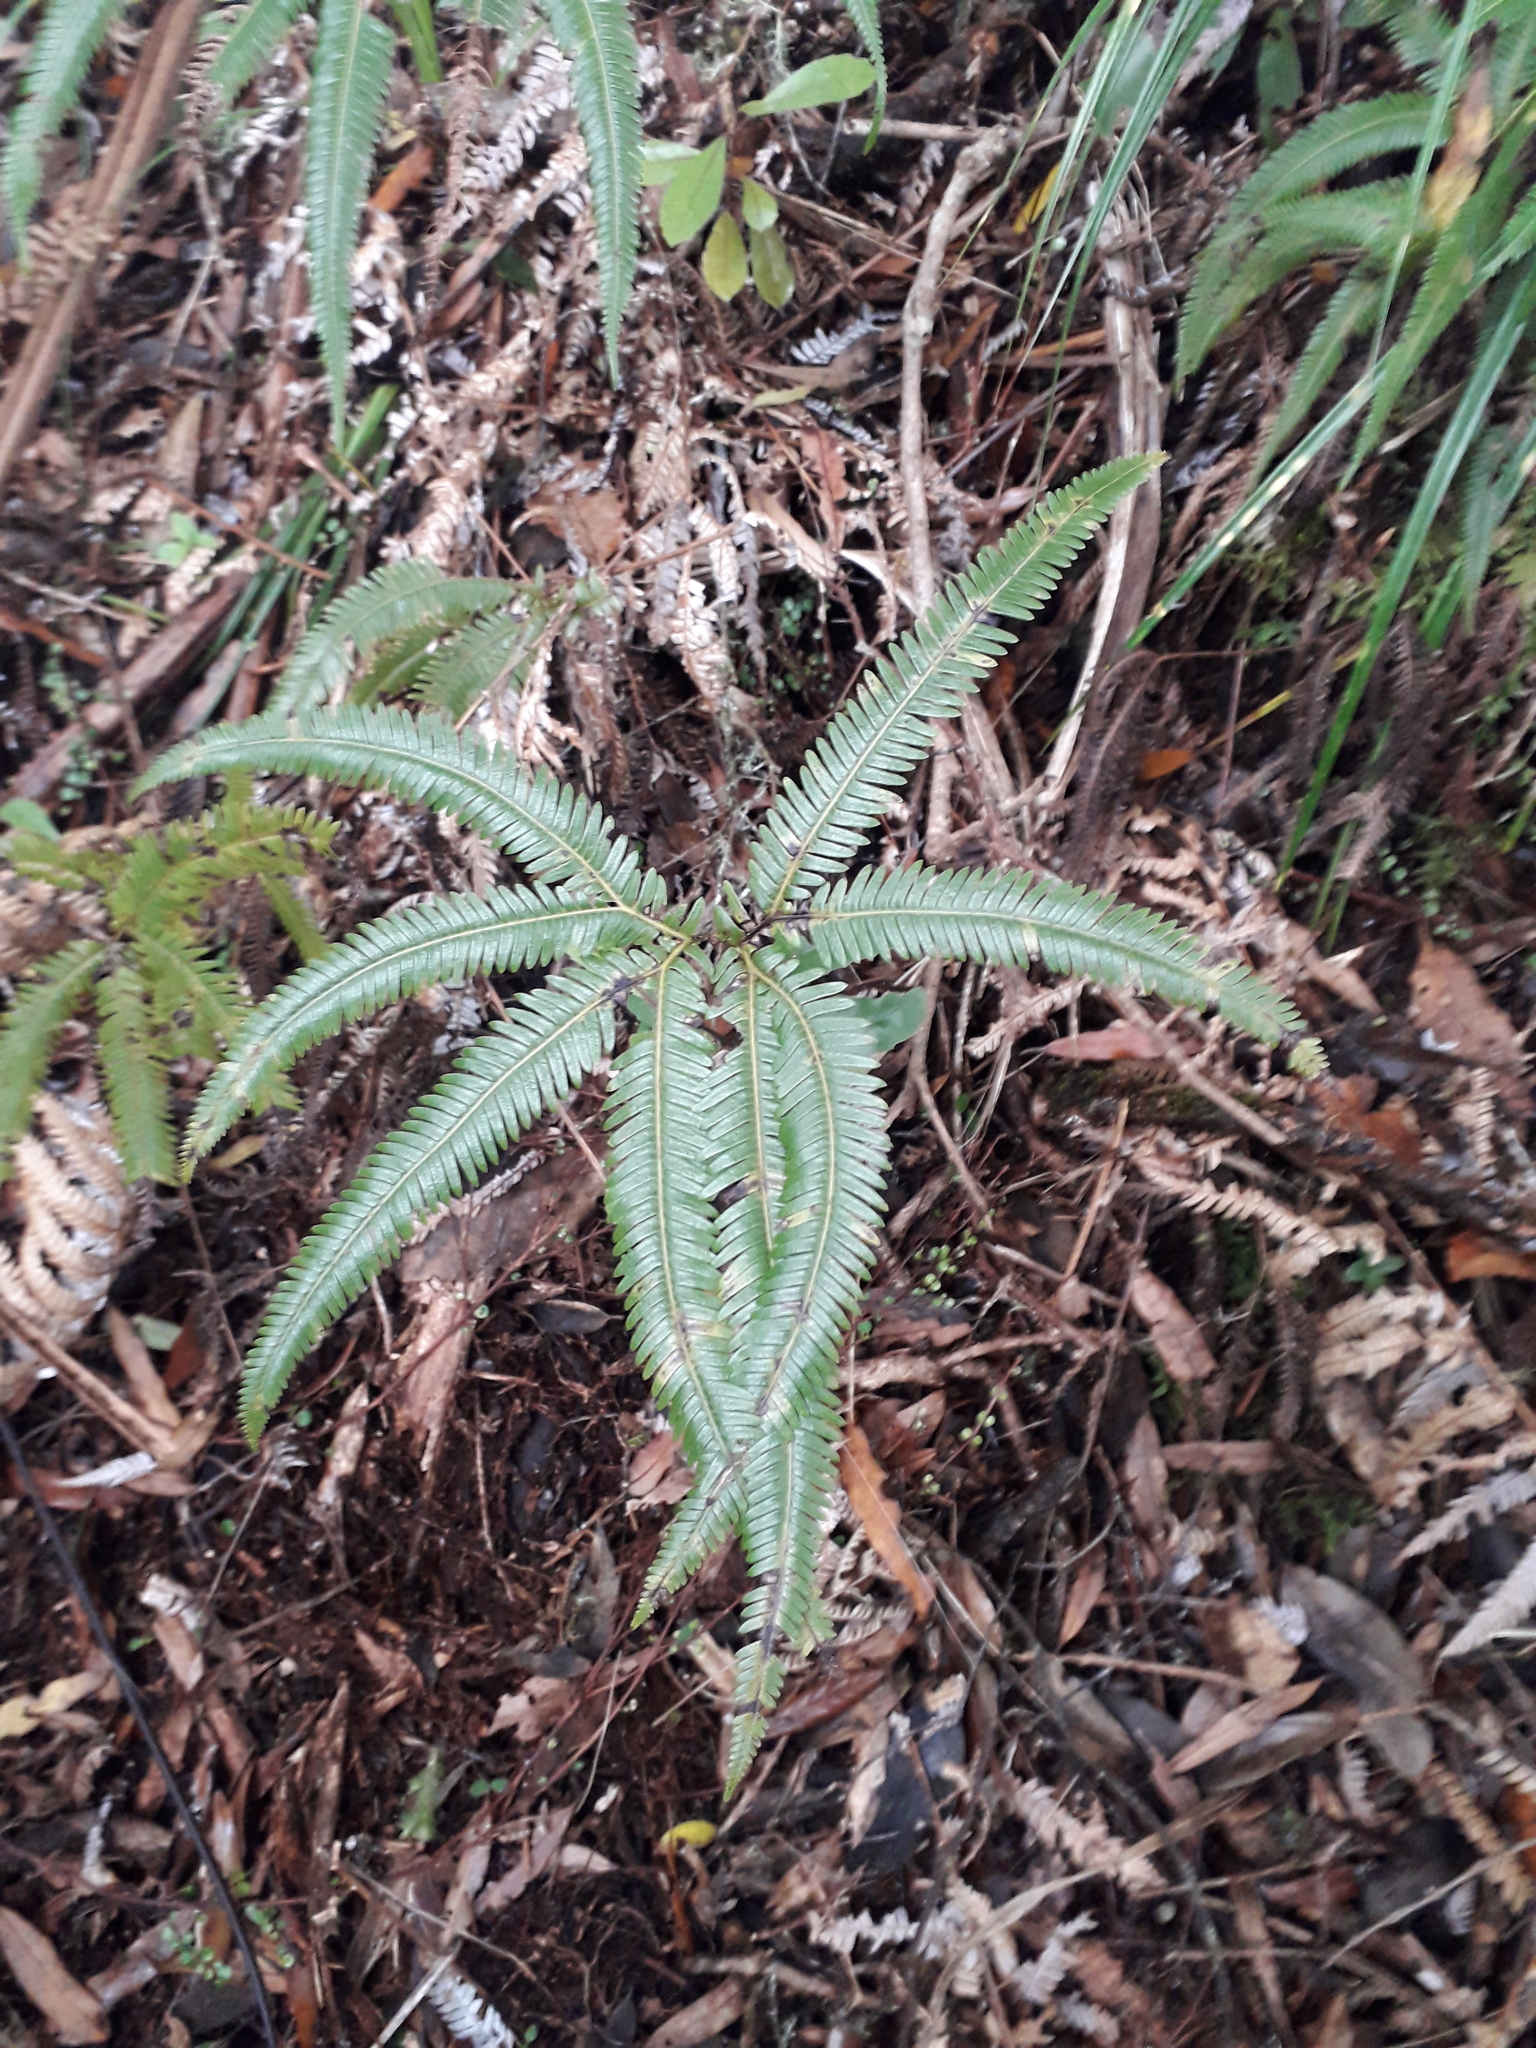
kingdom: Plantae
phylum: Tracheophyta
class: Polypodiopsida
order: Gleicheniales
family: Gleicheniaceae
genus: Sticherus
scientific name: Sticherus cunninghamii
